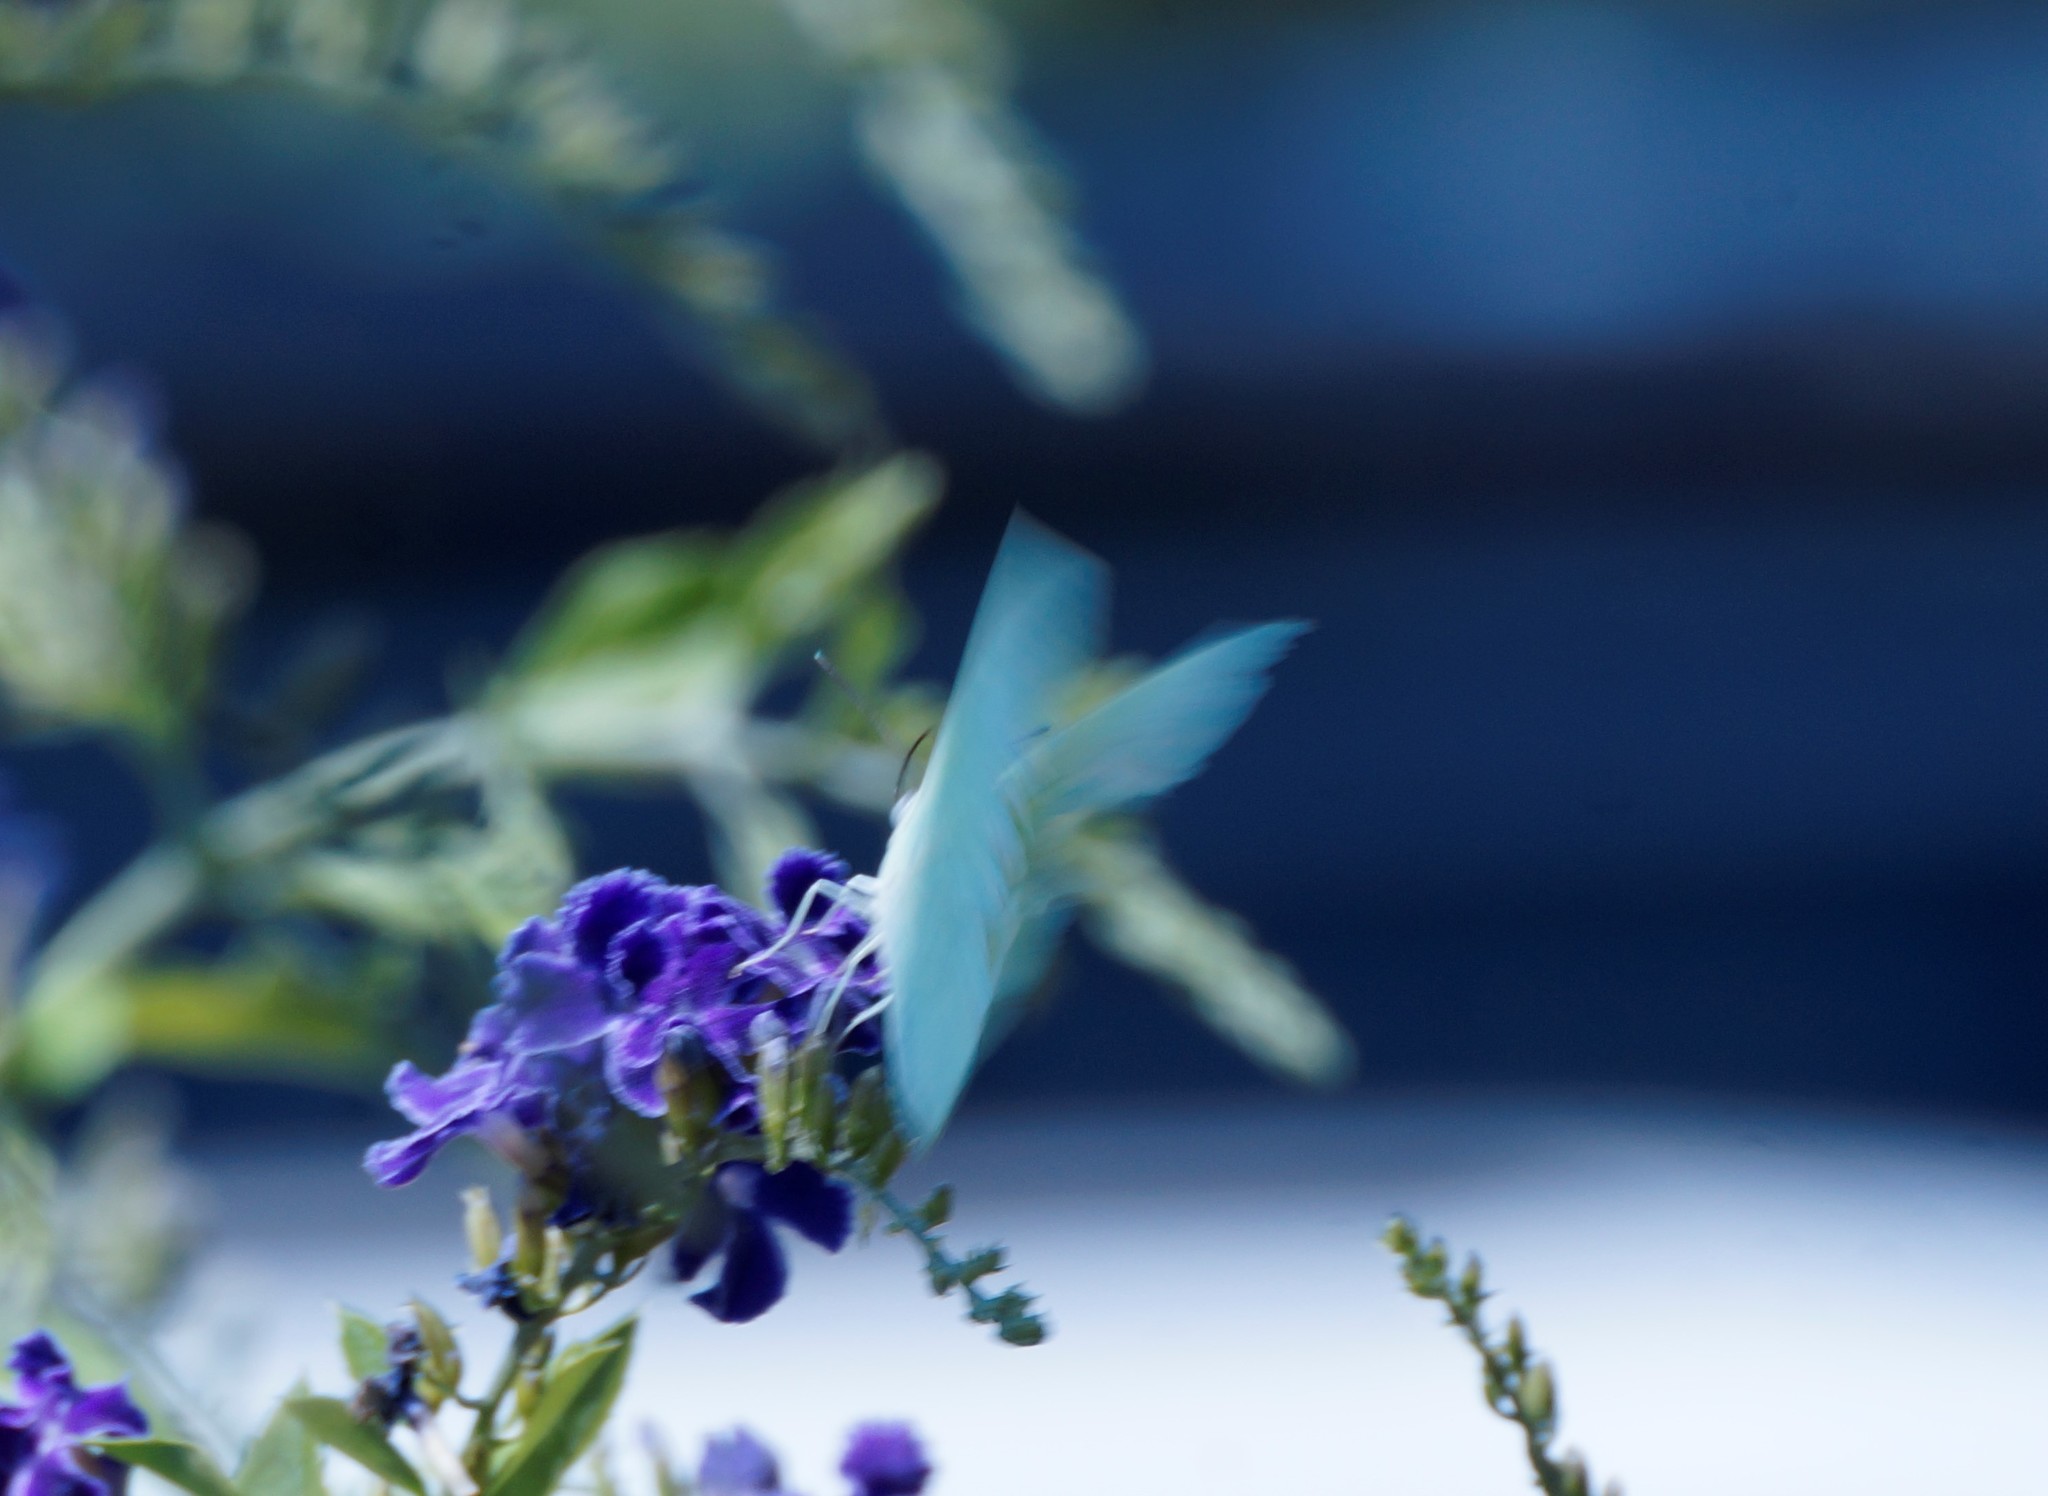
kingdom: Animalia
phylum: Arthropoda
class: Insecta
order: Lepidoptera
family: Pieridae
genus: Catopsilia
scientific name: Catopsilia pomona
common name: Common emigrant
